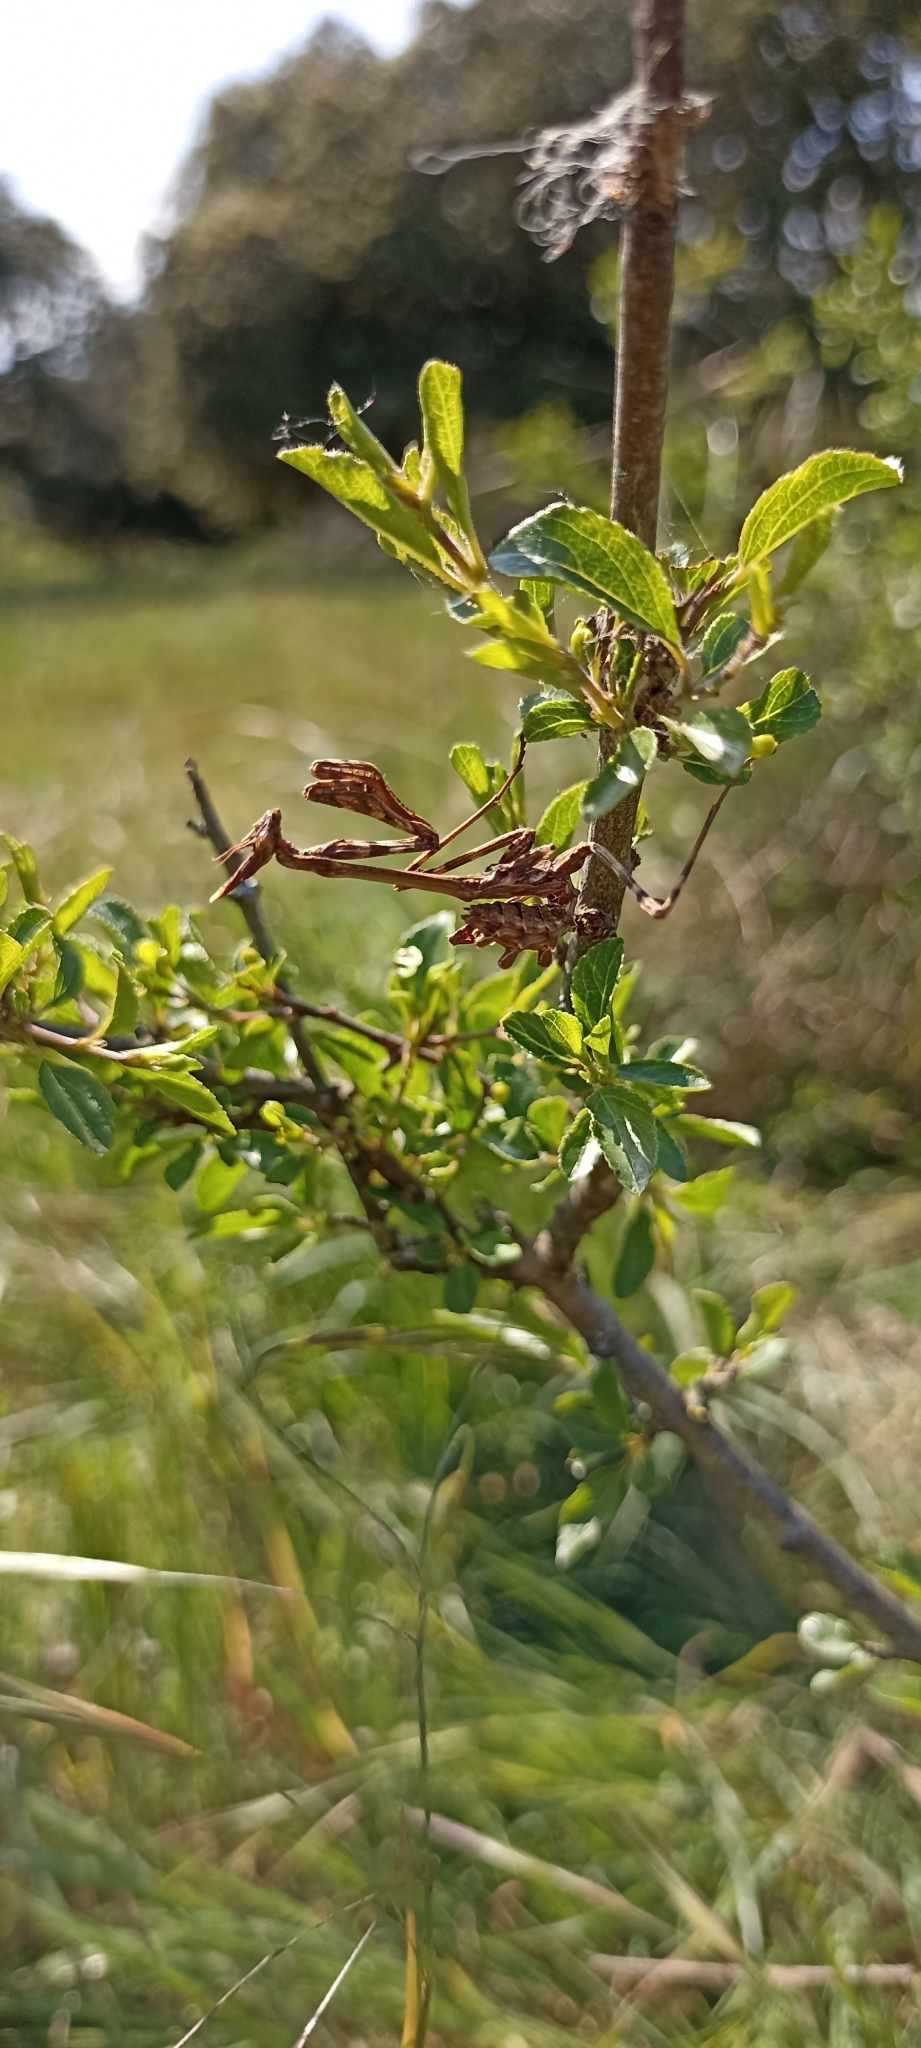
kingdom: Animalia
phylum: Arthropoda
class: Insecta
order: Mantodea
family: Empusidae
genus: Empusa
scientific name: Empusa pennata
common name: Conehead mantis
